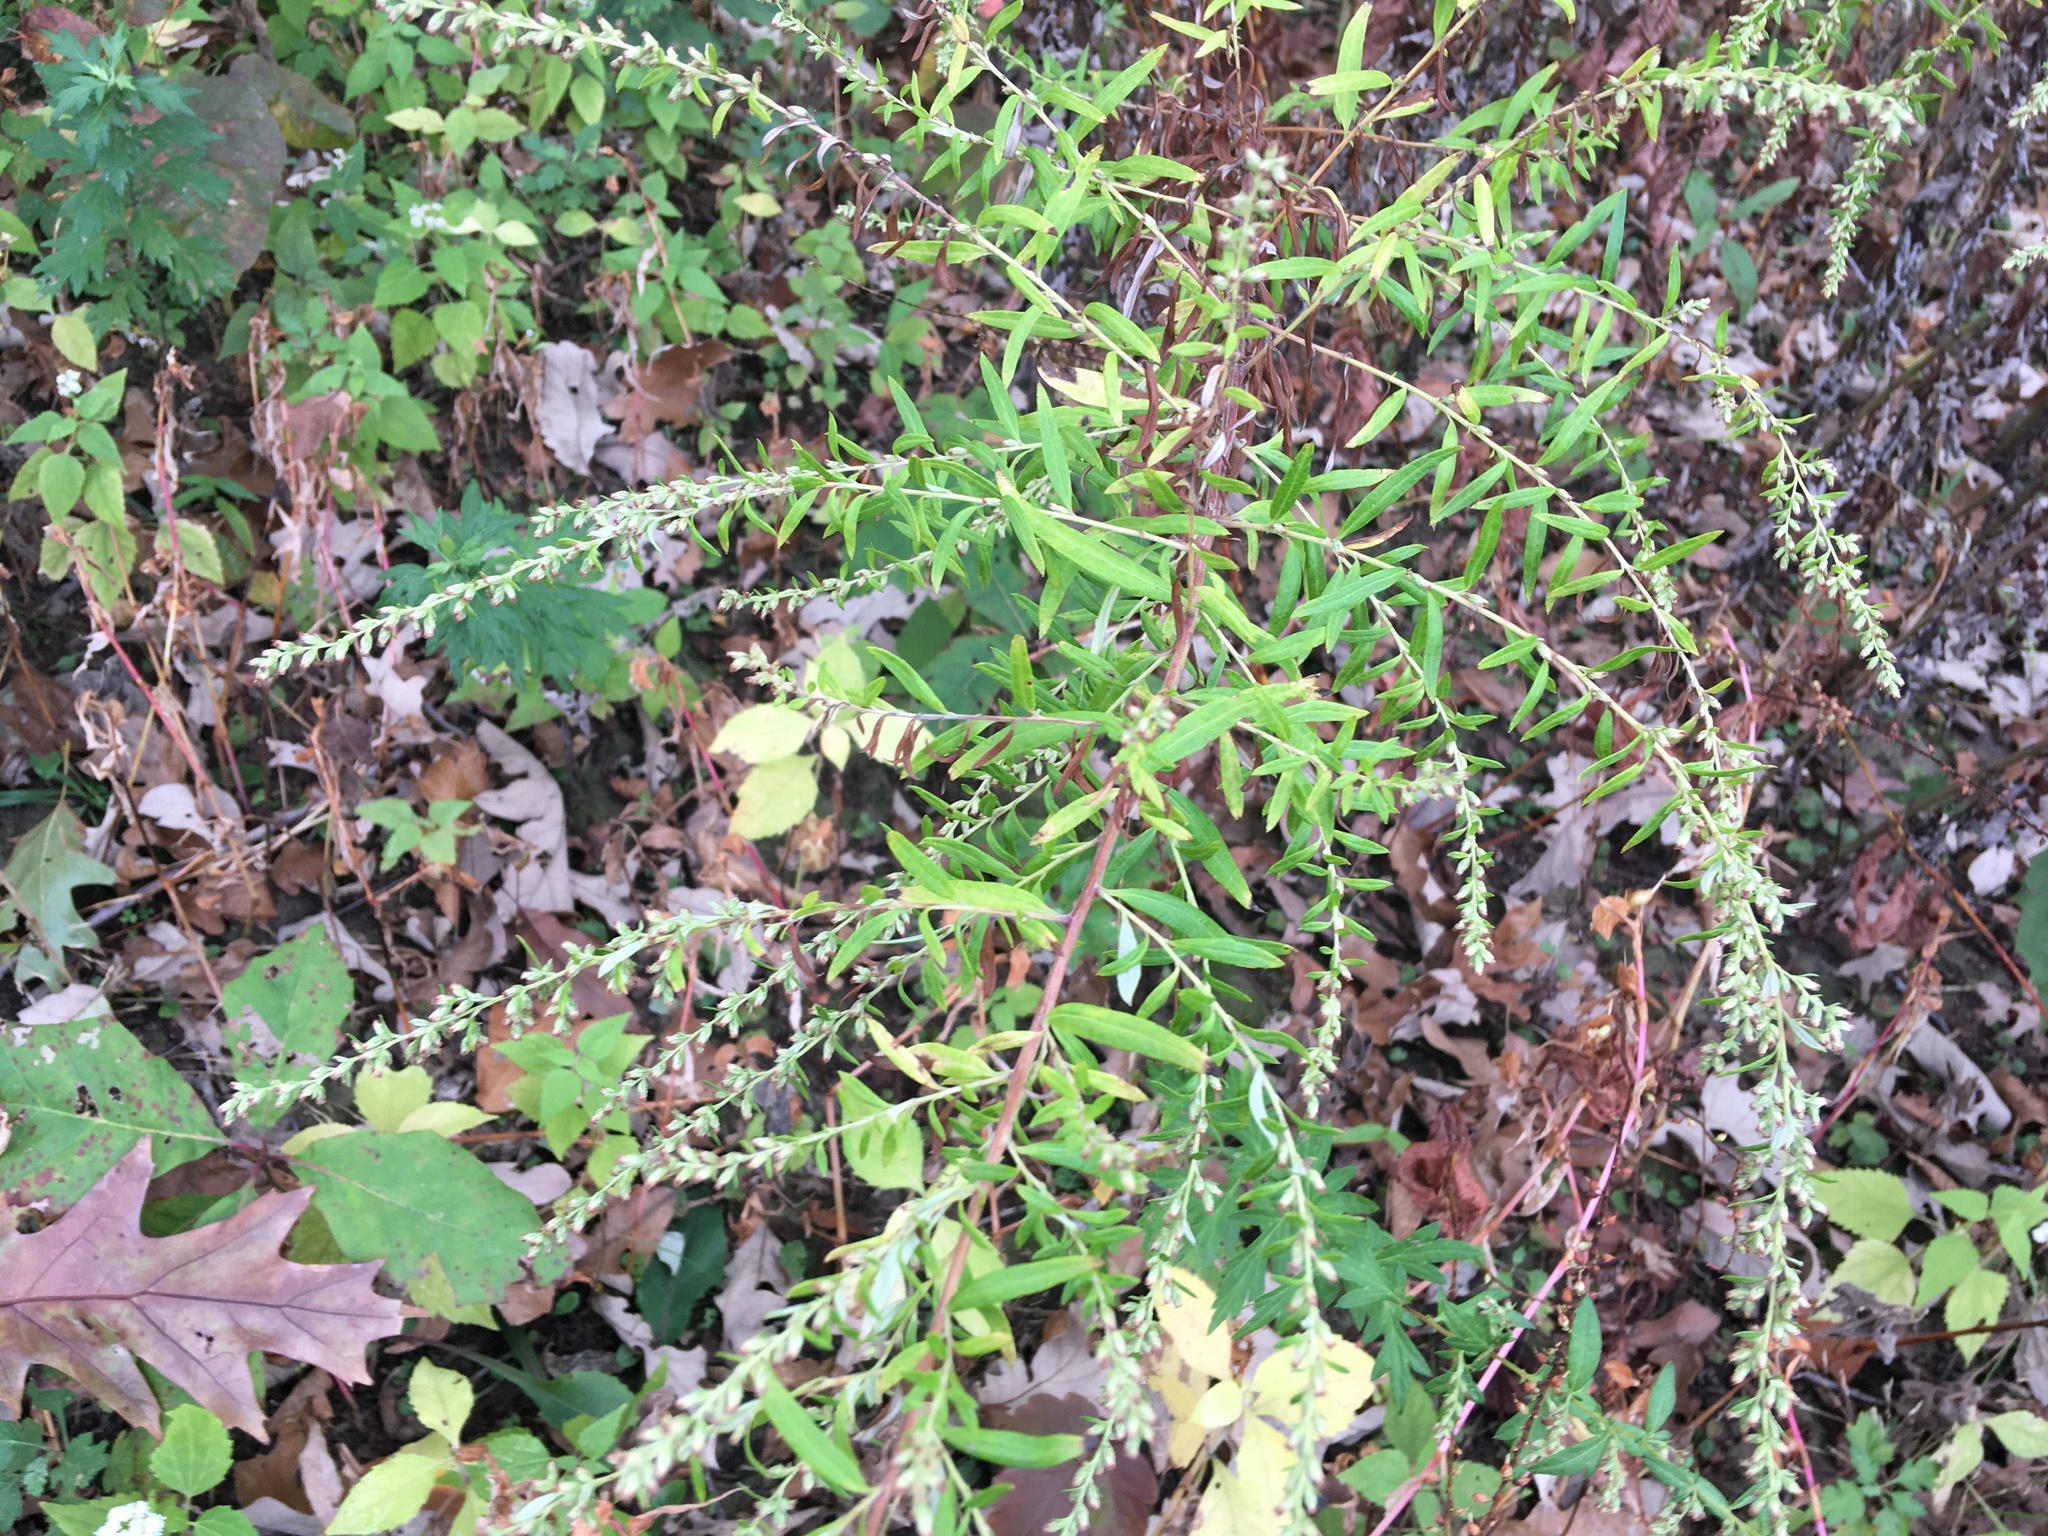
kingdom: Plantae
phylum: Tracheophyta
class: Magnoliopsida
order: Asterales
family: Asteraceae
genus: Artemisia
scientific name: Artemisia vulgaris
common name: Mugwort
